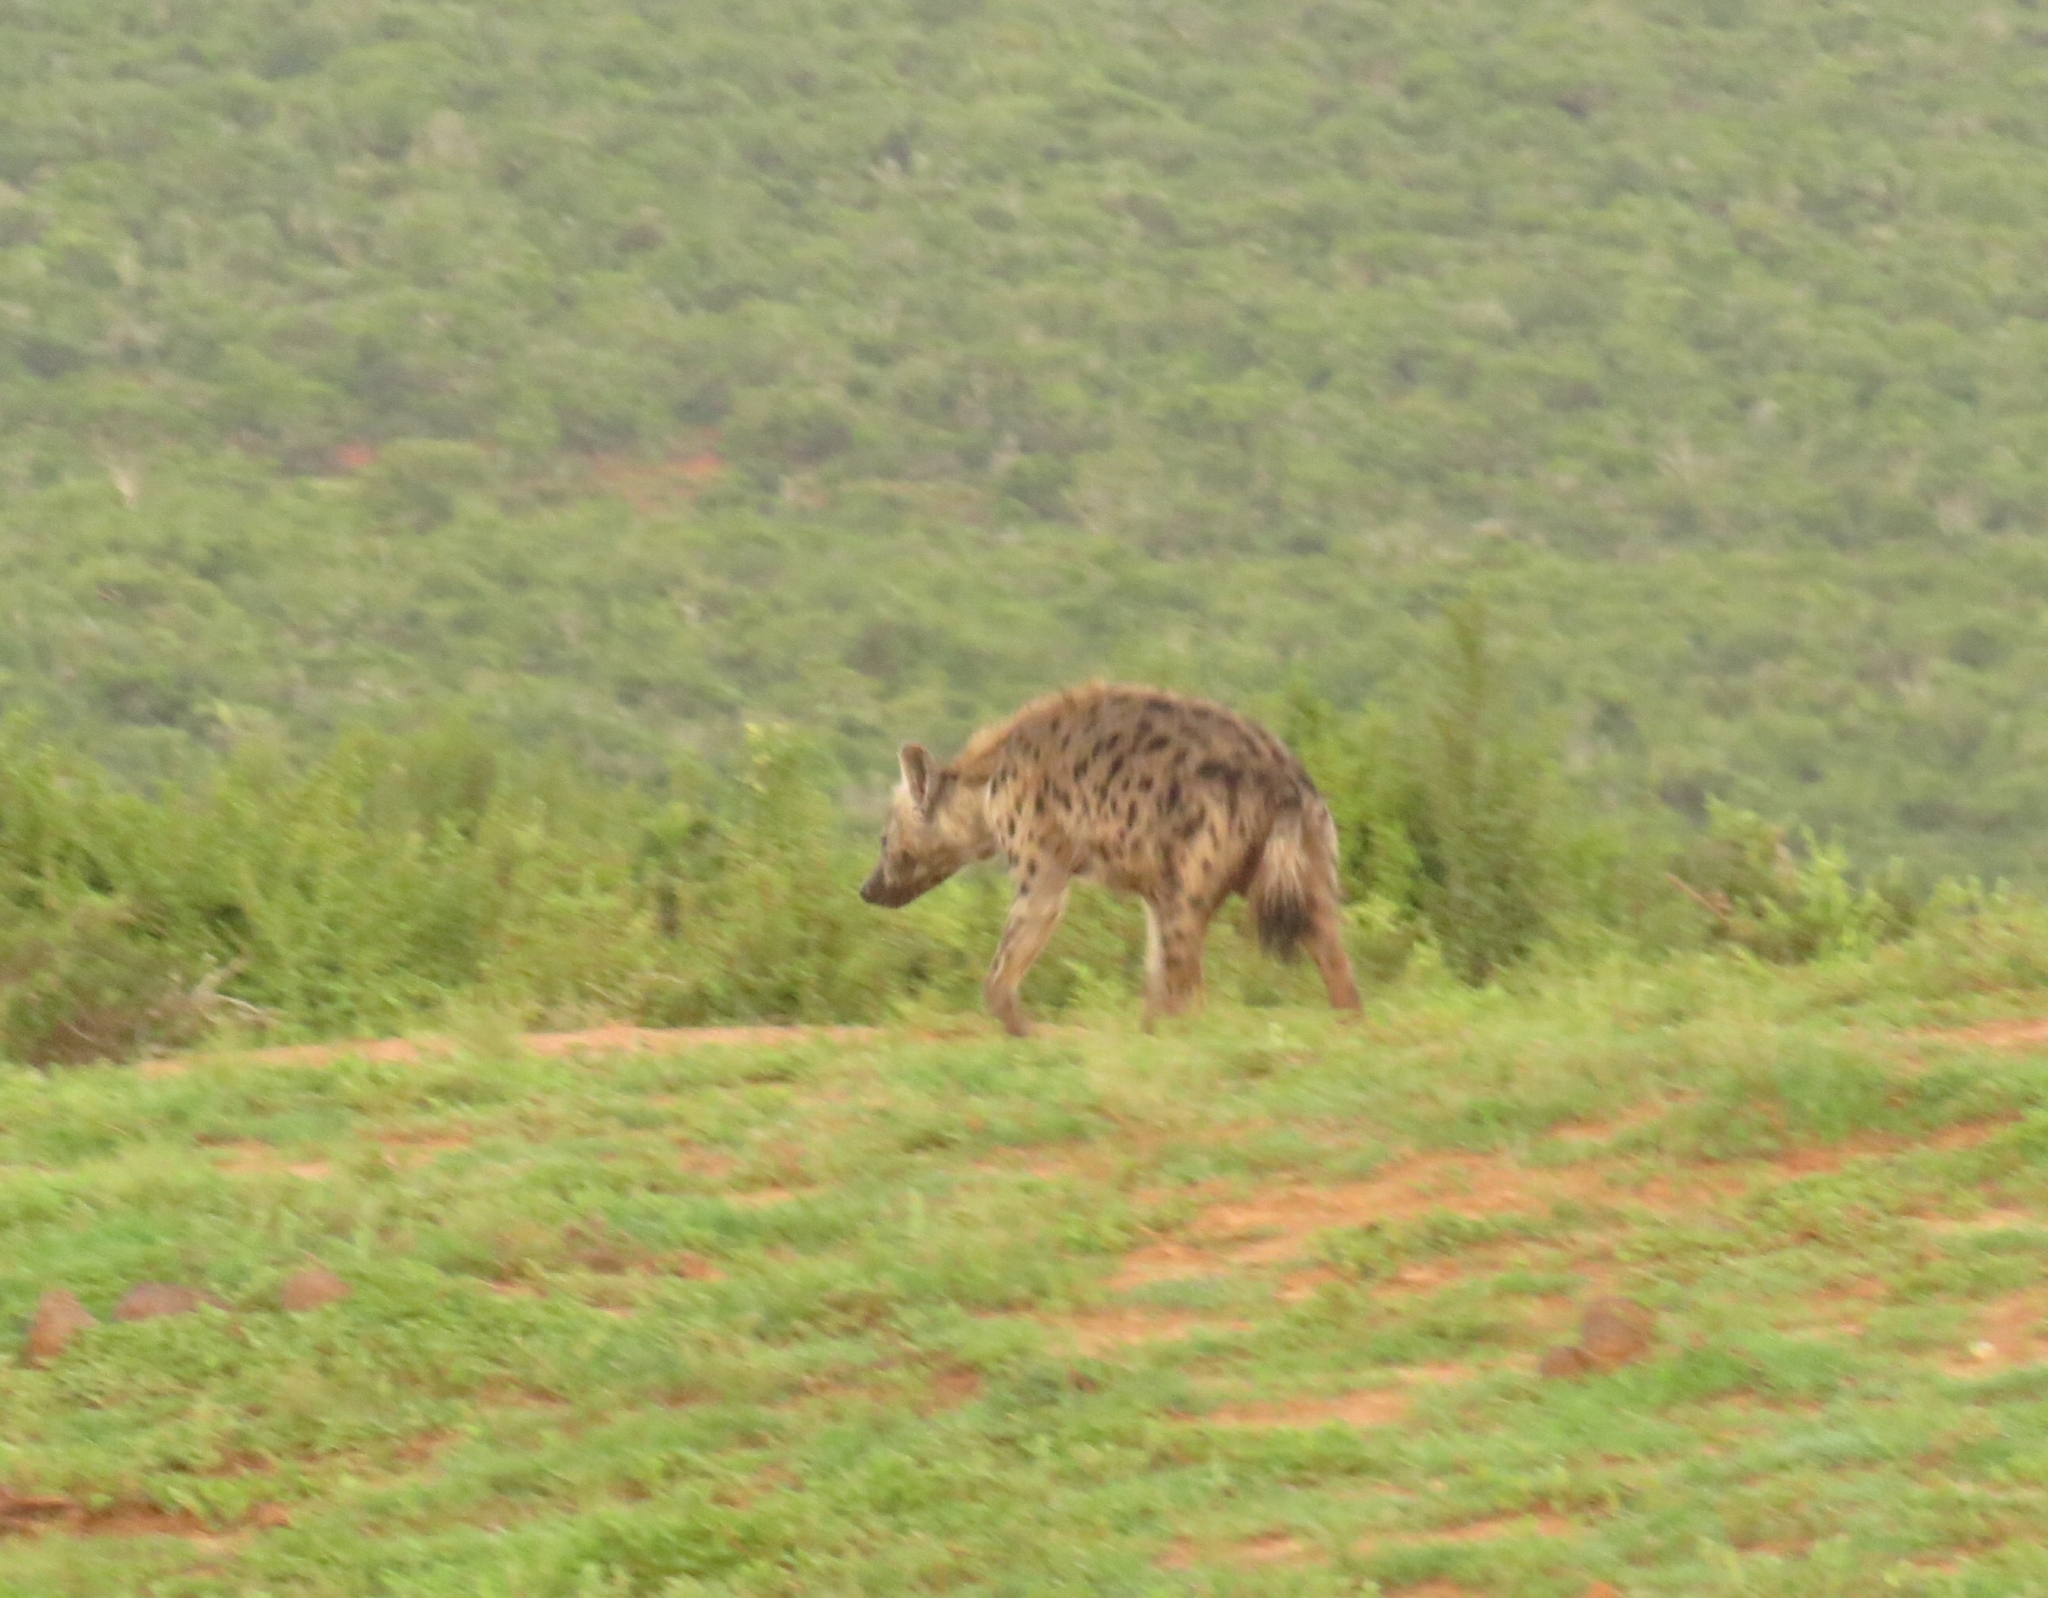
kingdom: Animalia
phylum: Chordata
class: Mammalia
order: Carnivora
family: Hyaenidae
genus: Crocuta
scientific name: Crocuta crocuta
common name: Spotted hyaena
